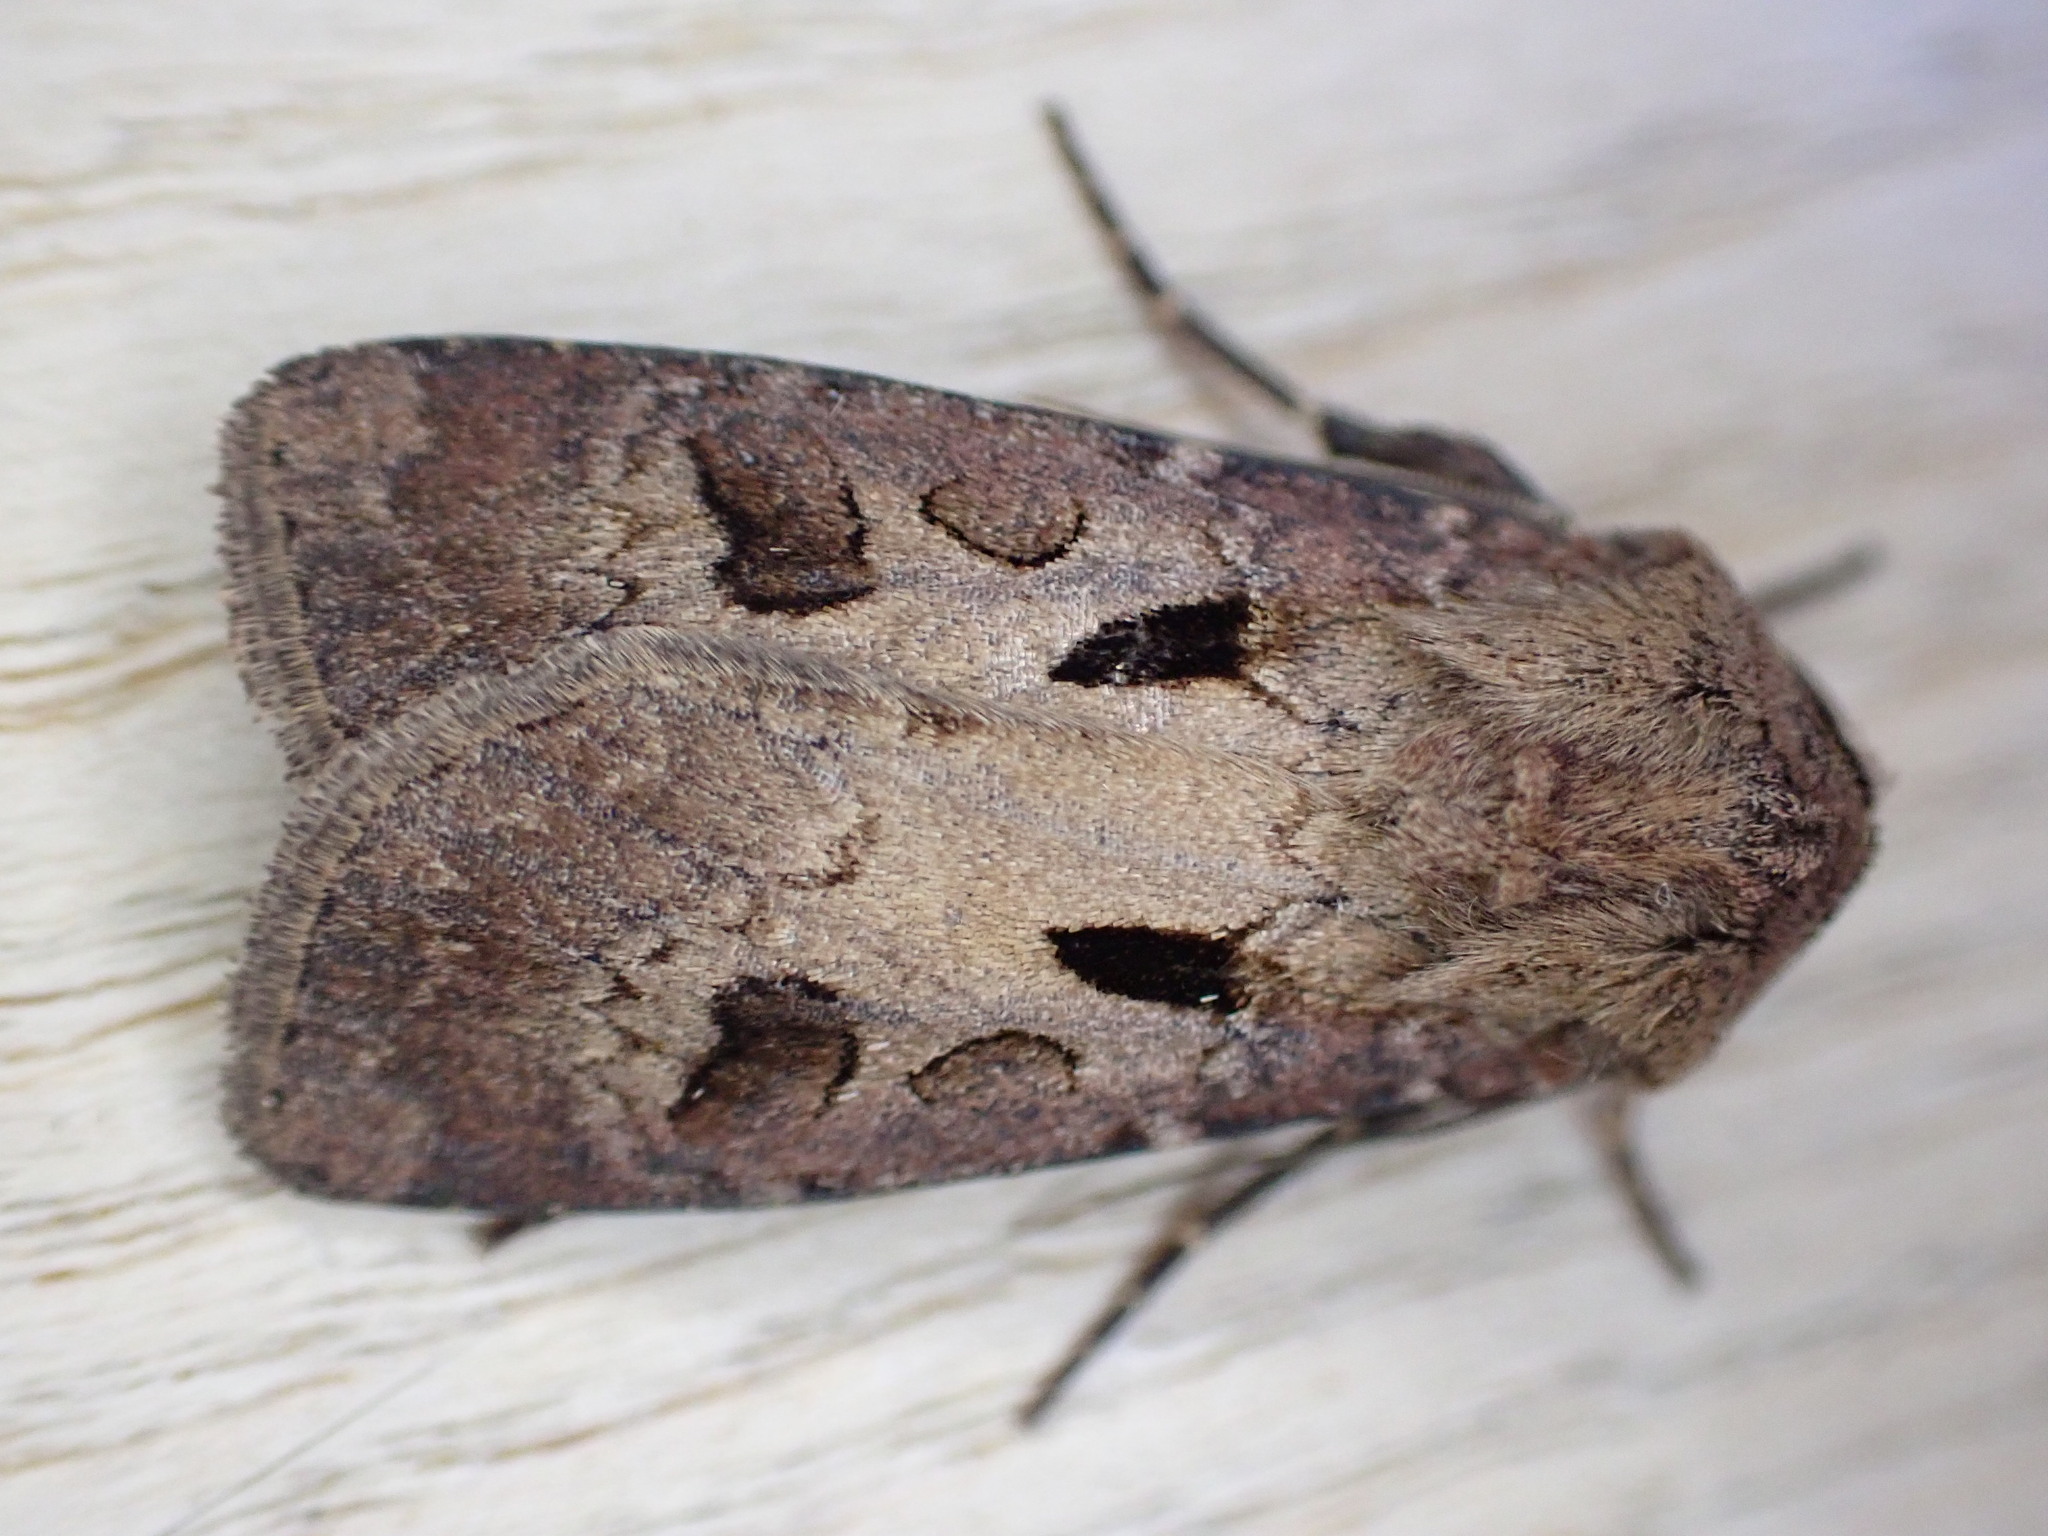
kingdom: Animalia
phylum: Arthropoda
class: Insecta
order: Lepidoptera
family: Noctuidae
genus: Agrotis
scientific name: Agrotis exclamationis
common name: Heart and dart
